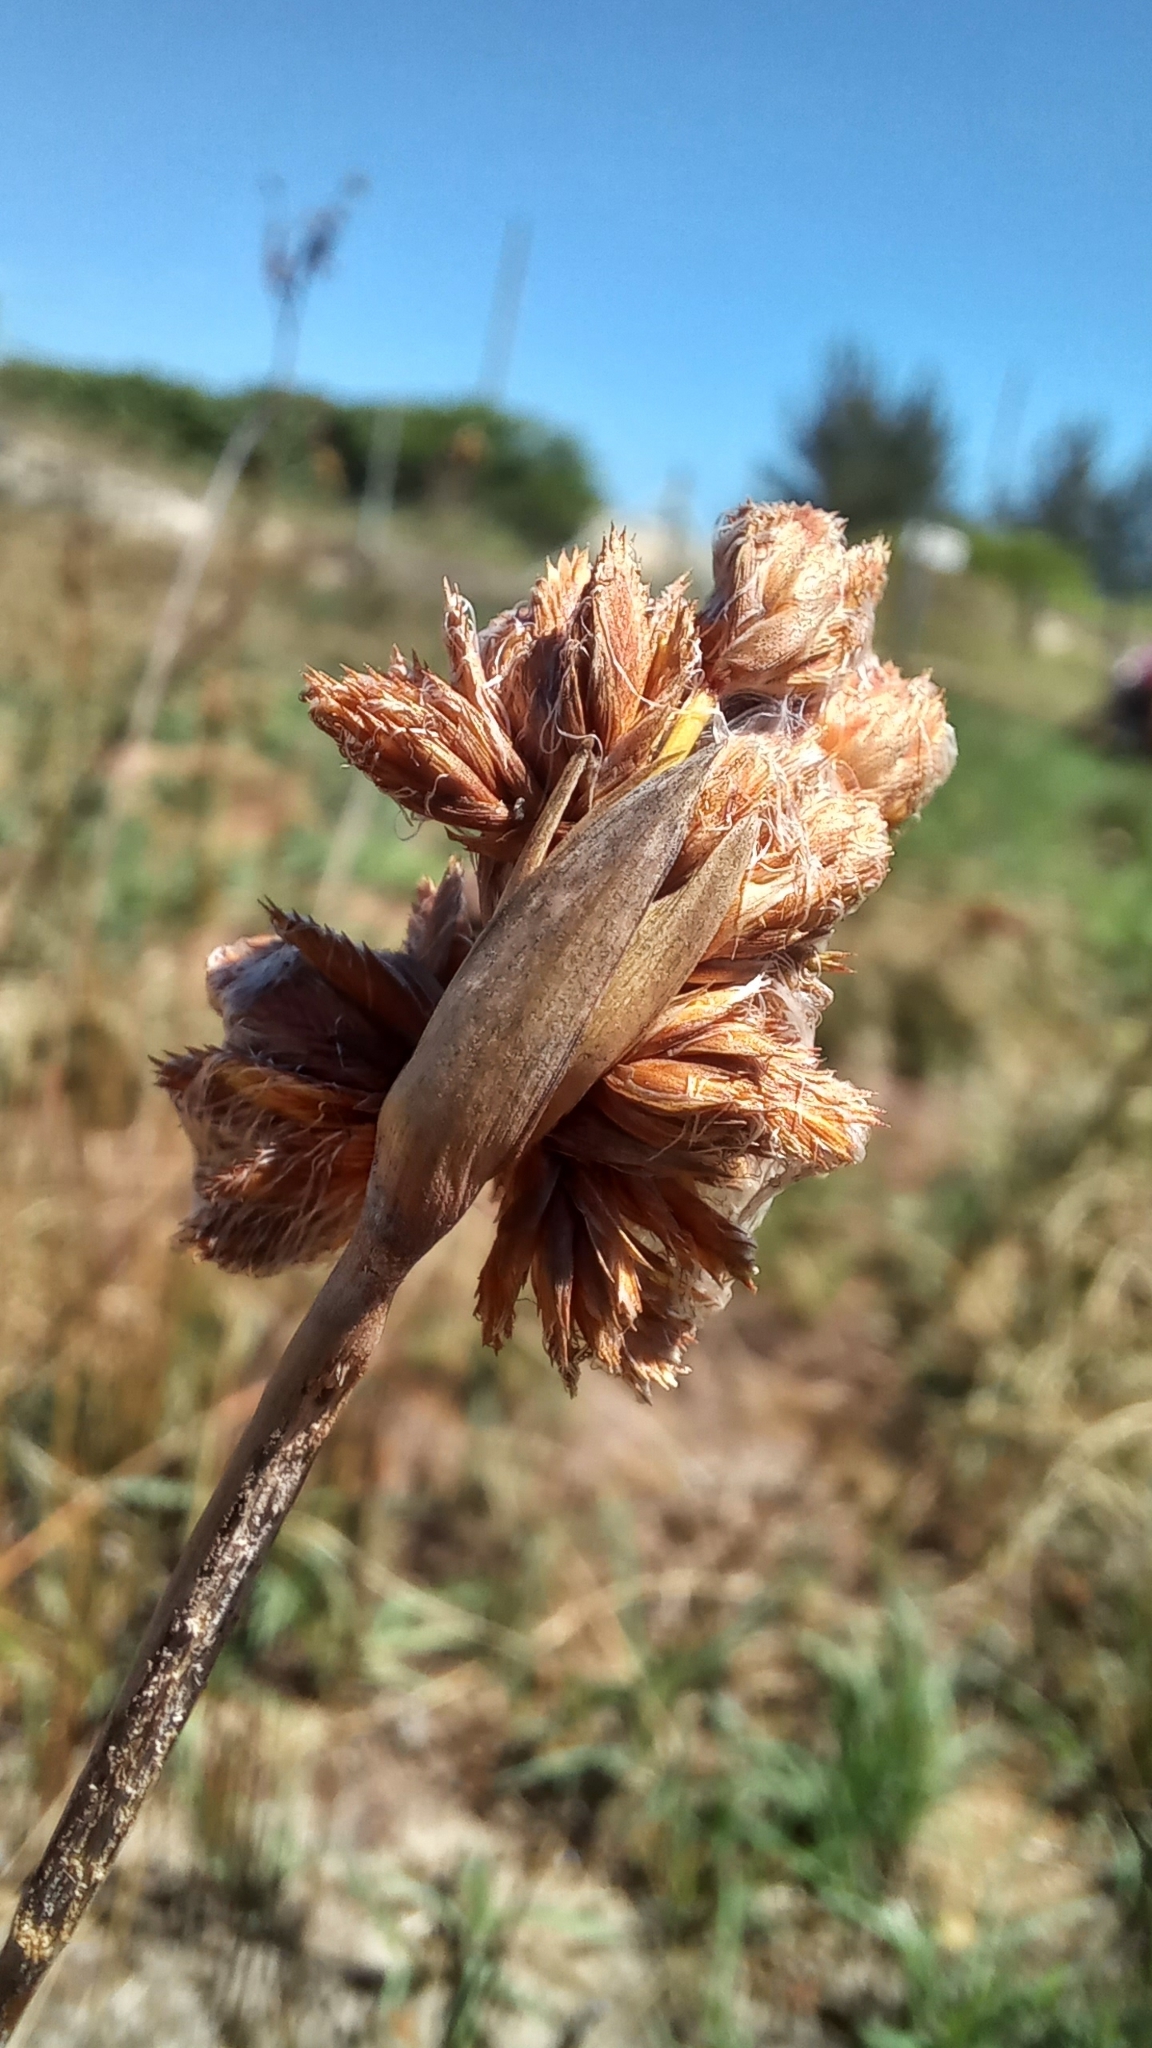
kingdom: Plantae
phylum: Tracheophyta
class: Liliopsida
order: Poales
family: Cyperaceae
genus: Cyperus
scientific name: Cyperus trigynus
